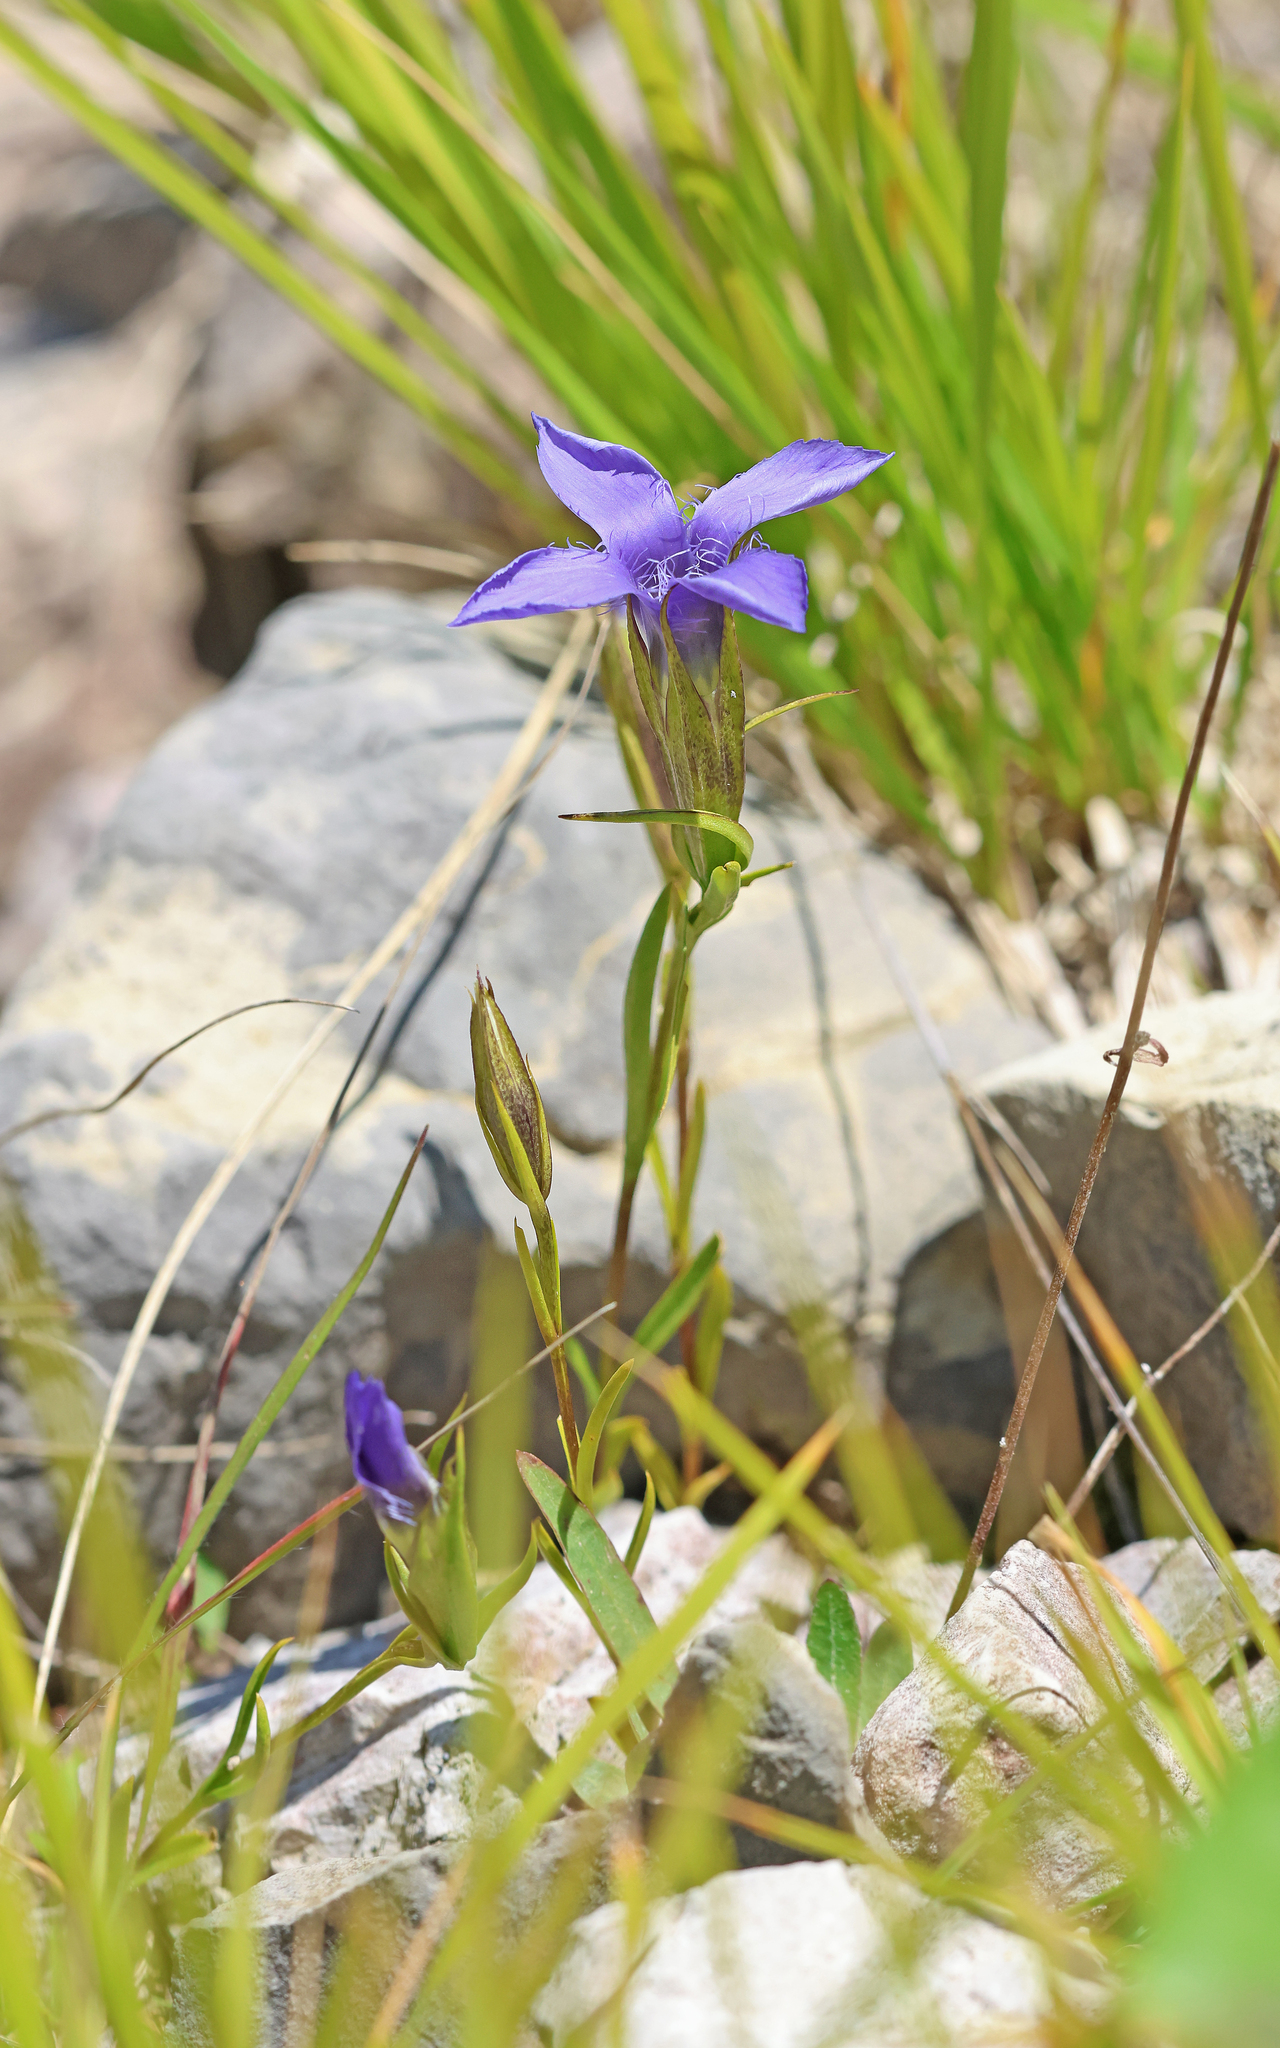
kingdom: Plantae
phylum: Tracheophyta
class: Magnoliopsida
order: Gentianales
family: Gentianaceae
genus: Gentianopsis
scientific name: Gentianopsis ciliata
